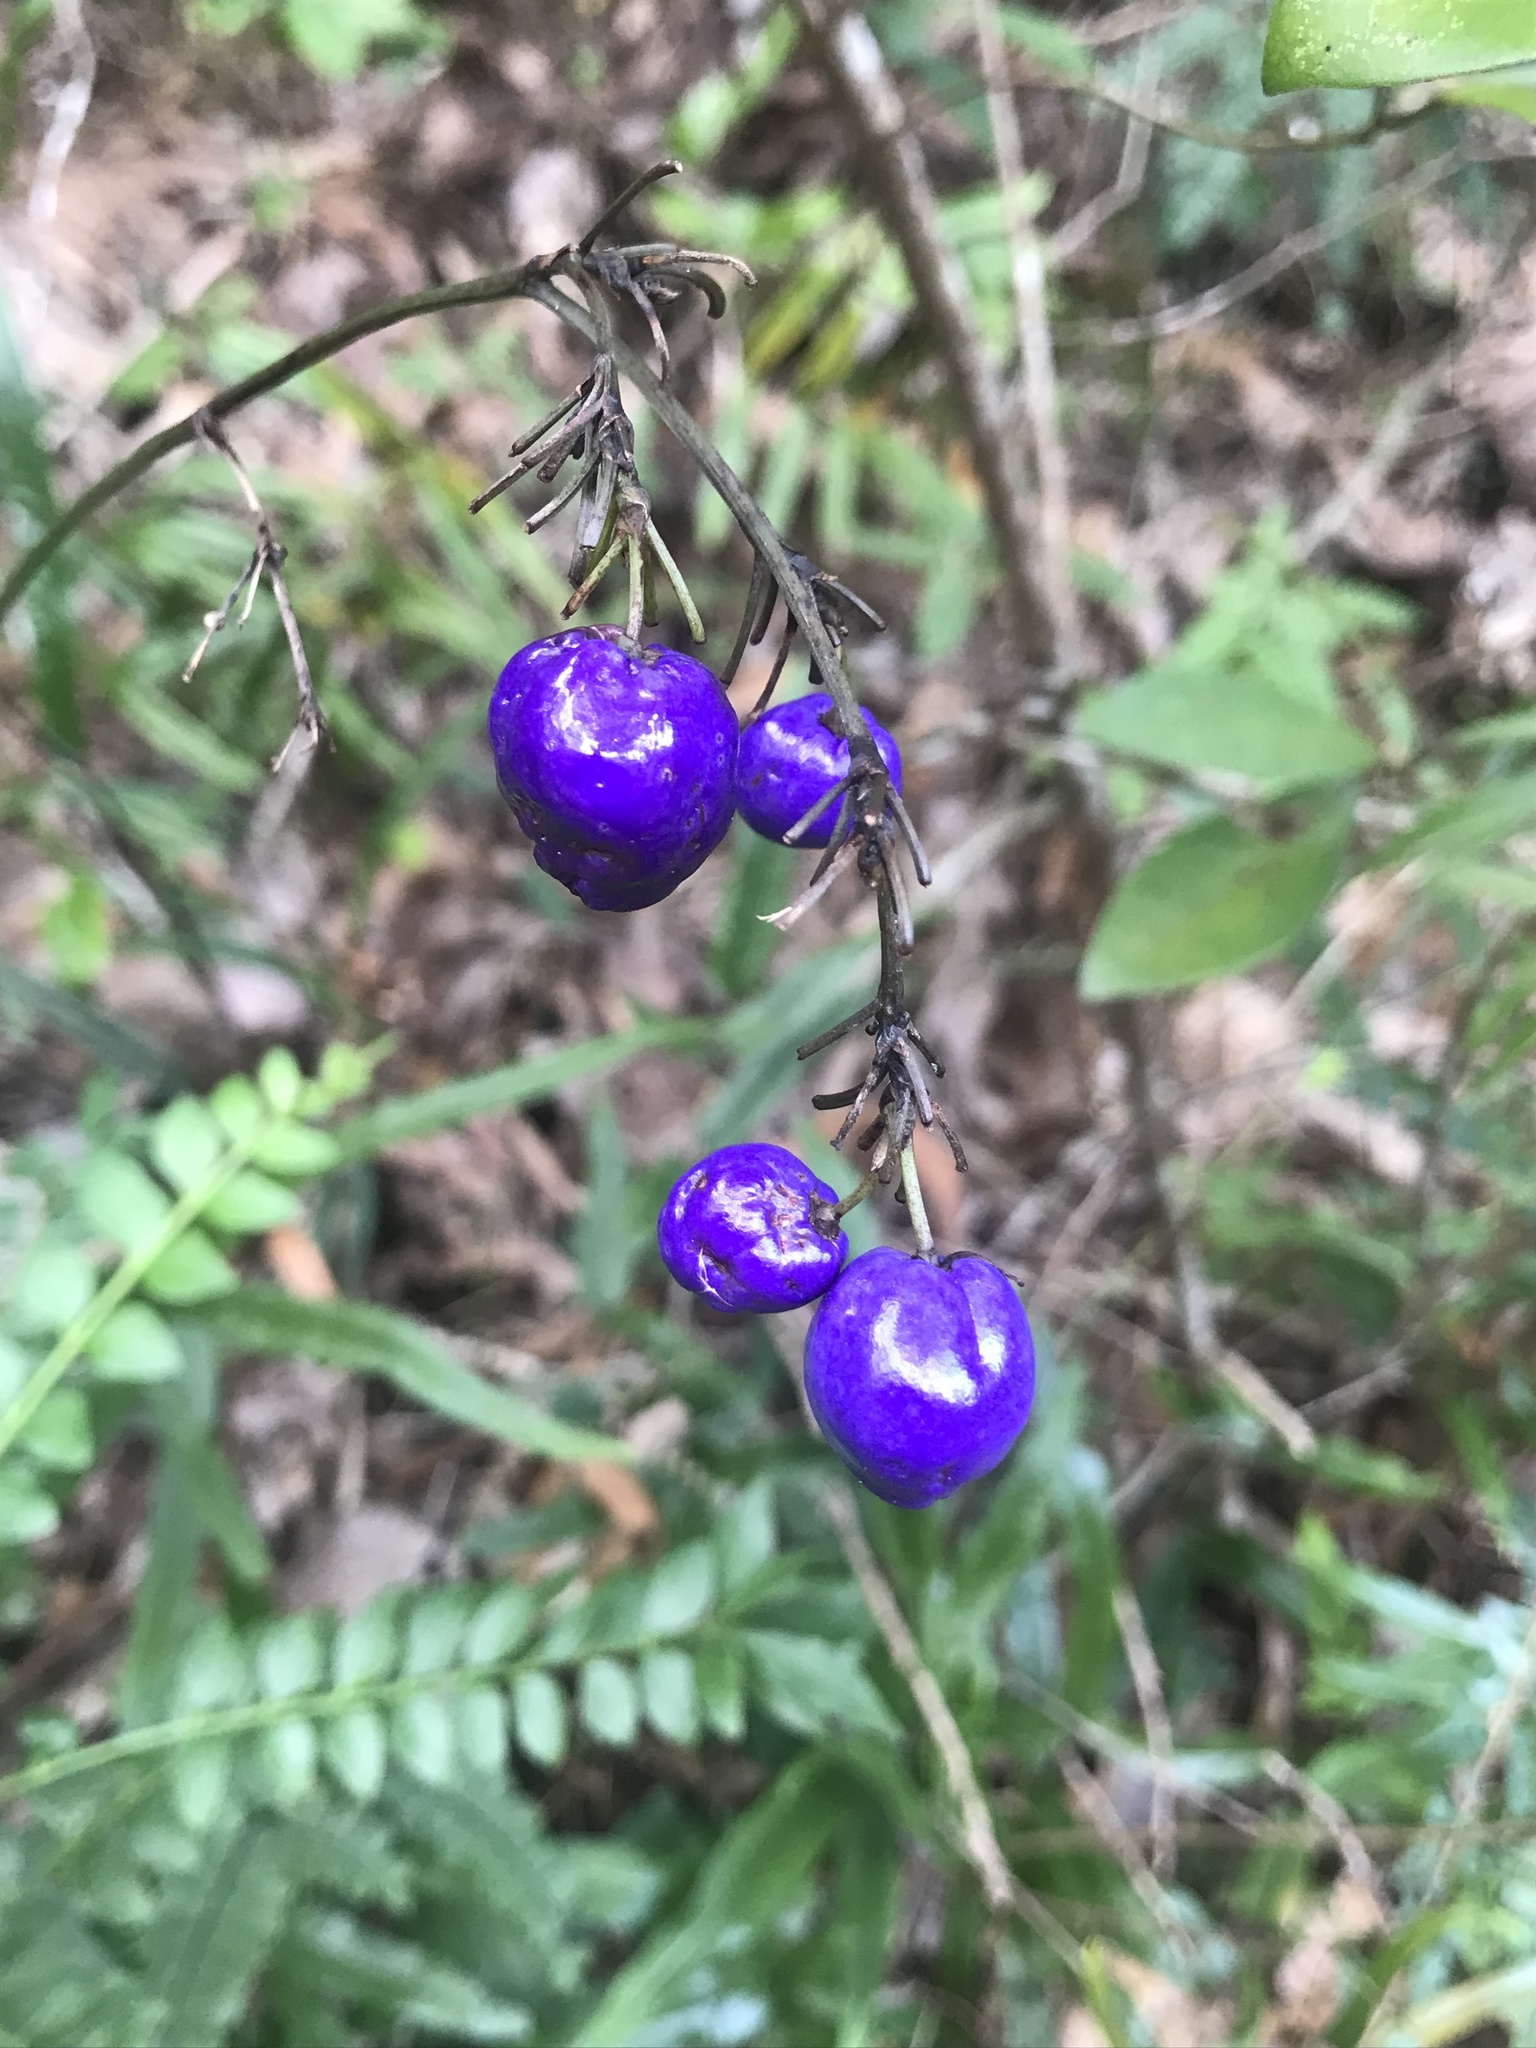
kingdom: Plantae
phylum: Tracheophyta
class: Liliopsida
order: Asparagales
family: Asphodelaceae
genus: Dianella
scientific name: Dianella ensifolia
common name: New zealand lilyplant
